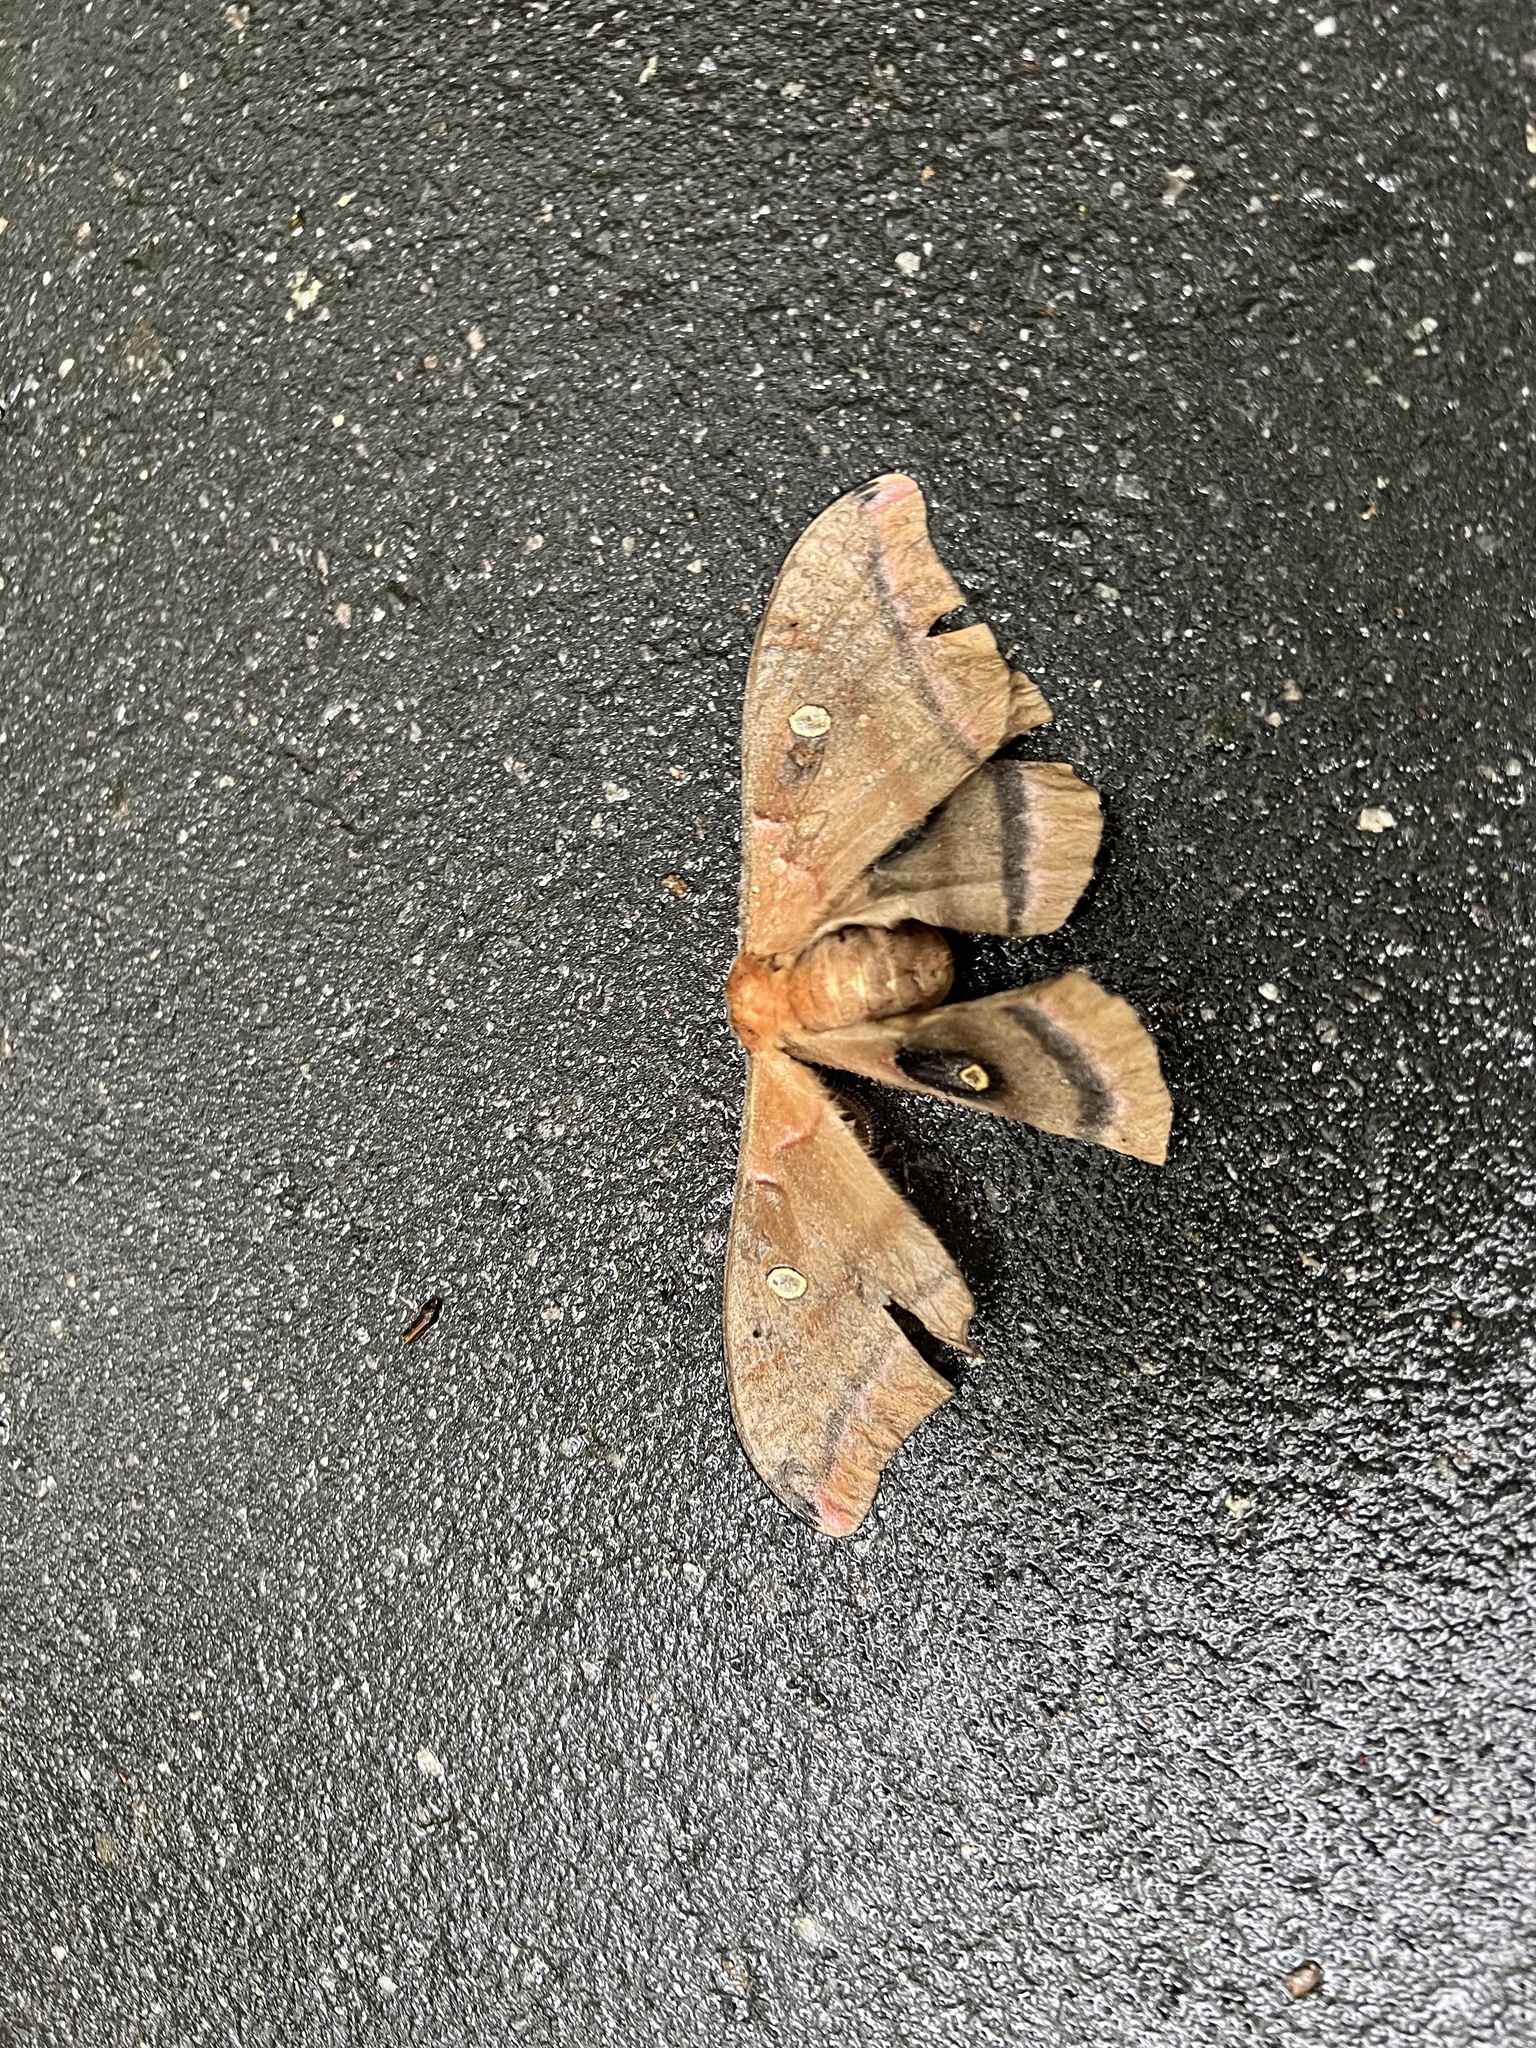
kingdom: Animalia
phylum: Arthropoda
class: Insecta
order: Lepidoptera
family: Saturniidae
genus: Antheraea
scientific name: Antheraea polyphemus
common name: Polyphemus moth
